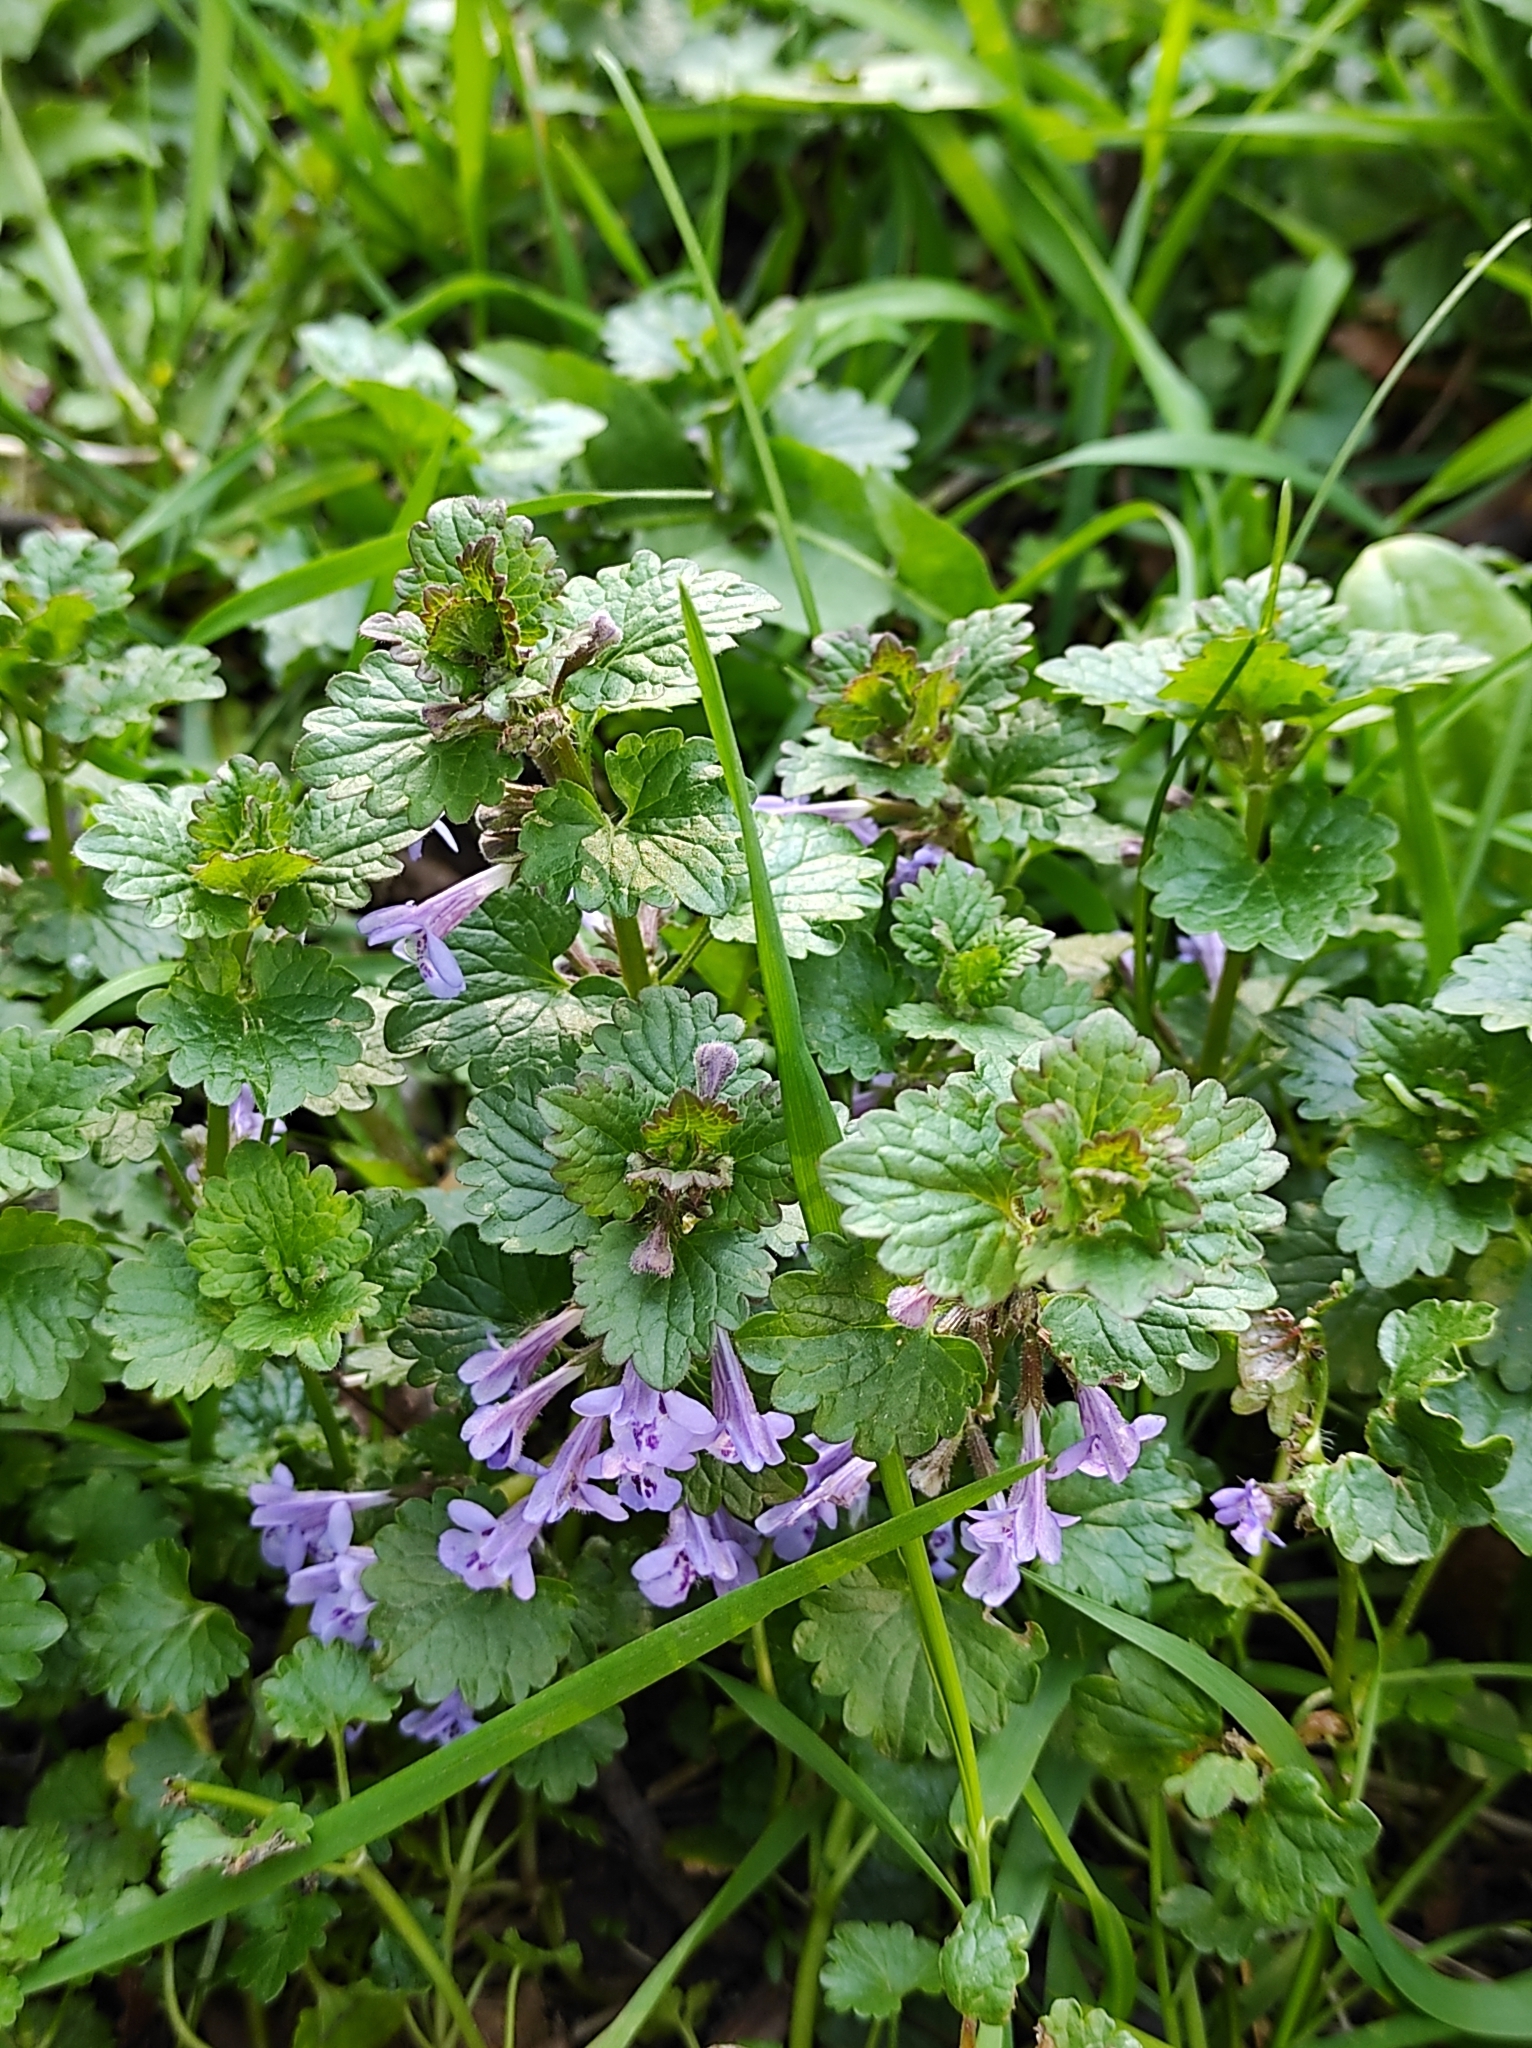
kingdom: Plantae
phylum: Tracheophyta
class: Magnoliopsida
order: Lamiales
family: Lamiaceae
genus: Glechoma
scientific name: Glechoma hederacea
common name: Ground ivy
